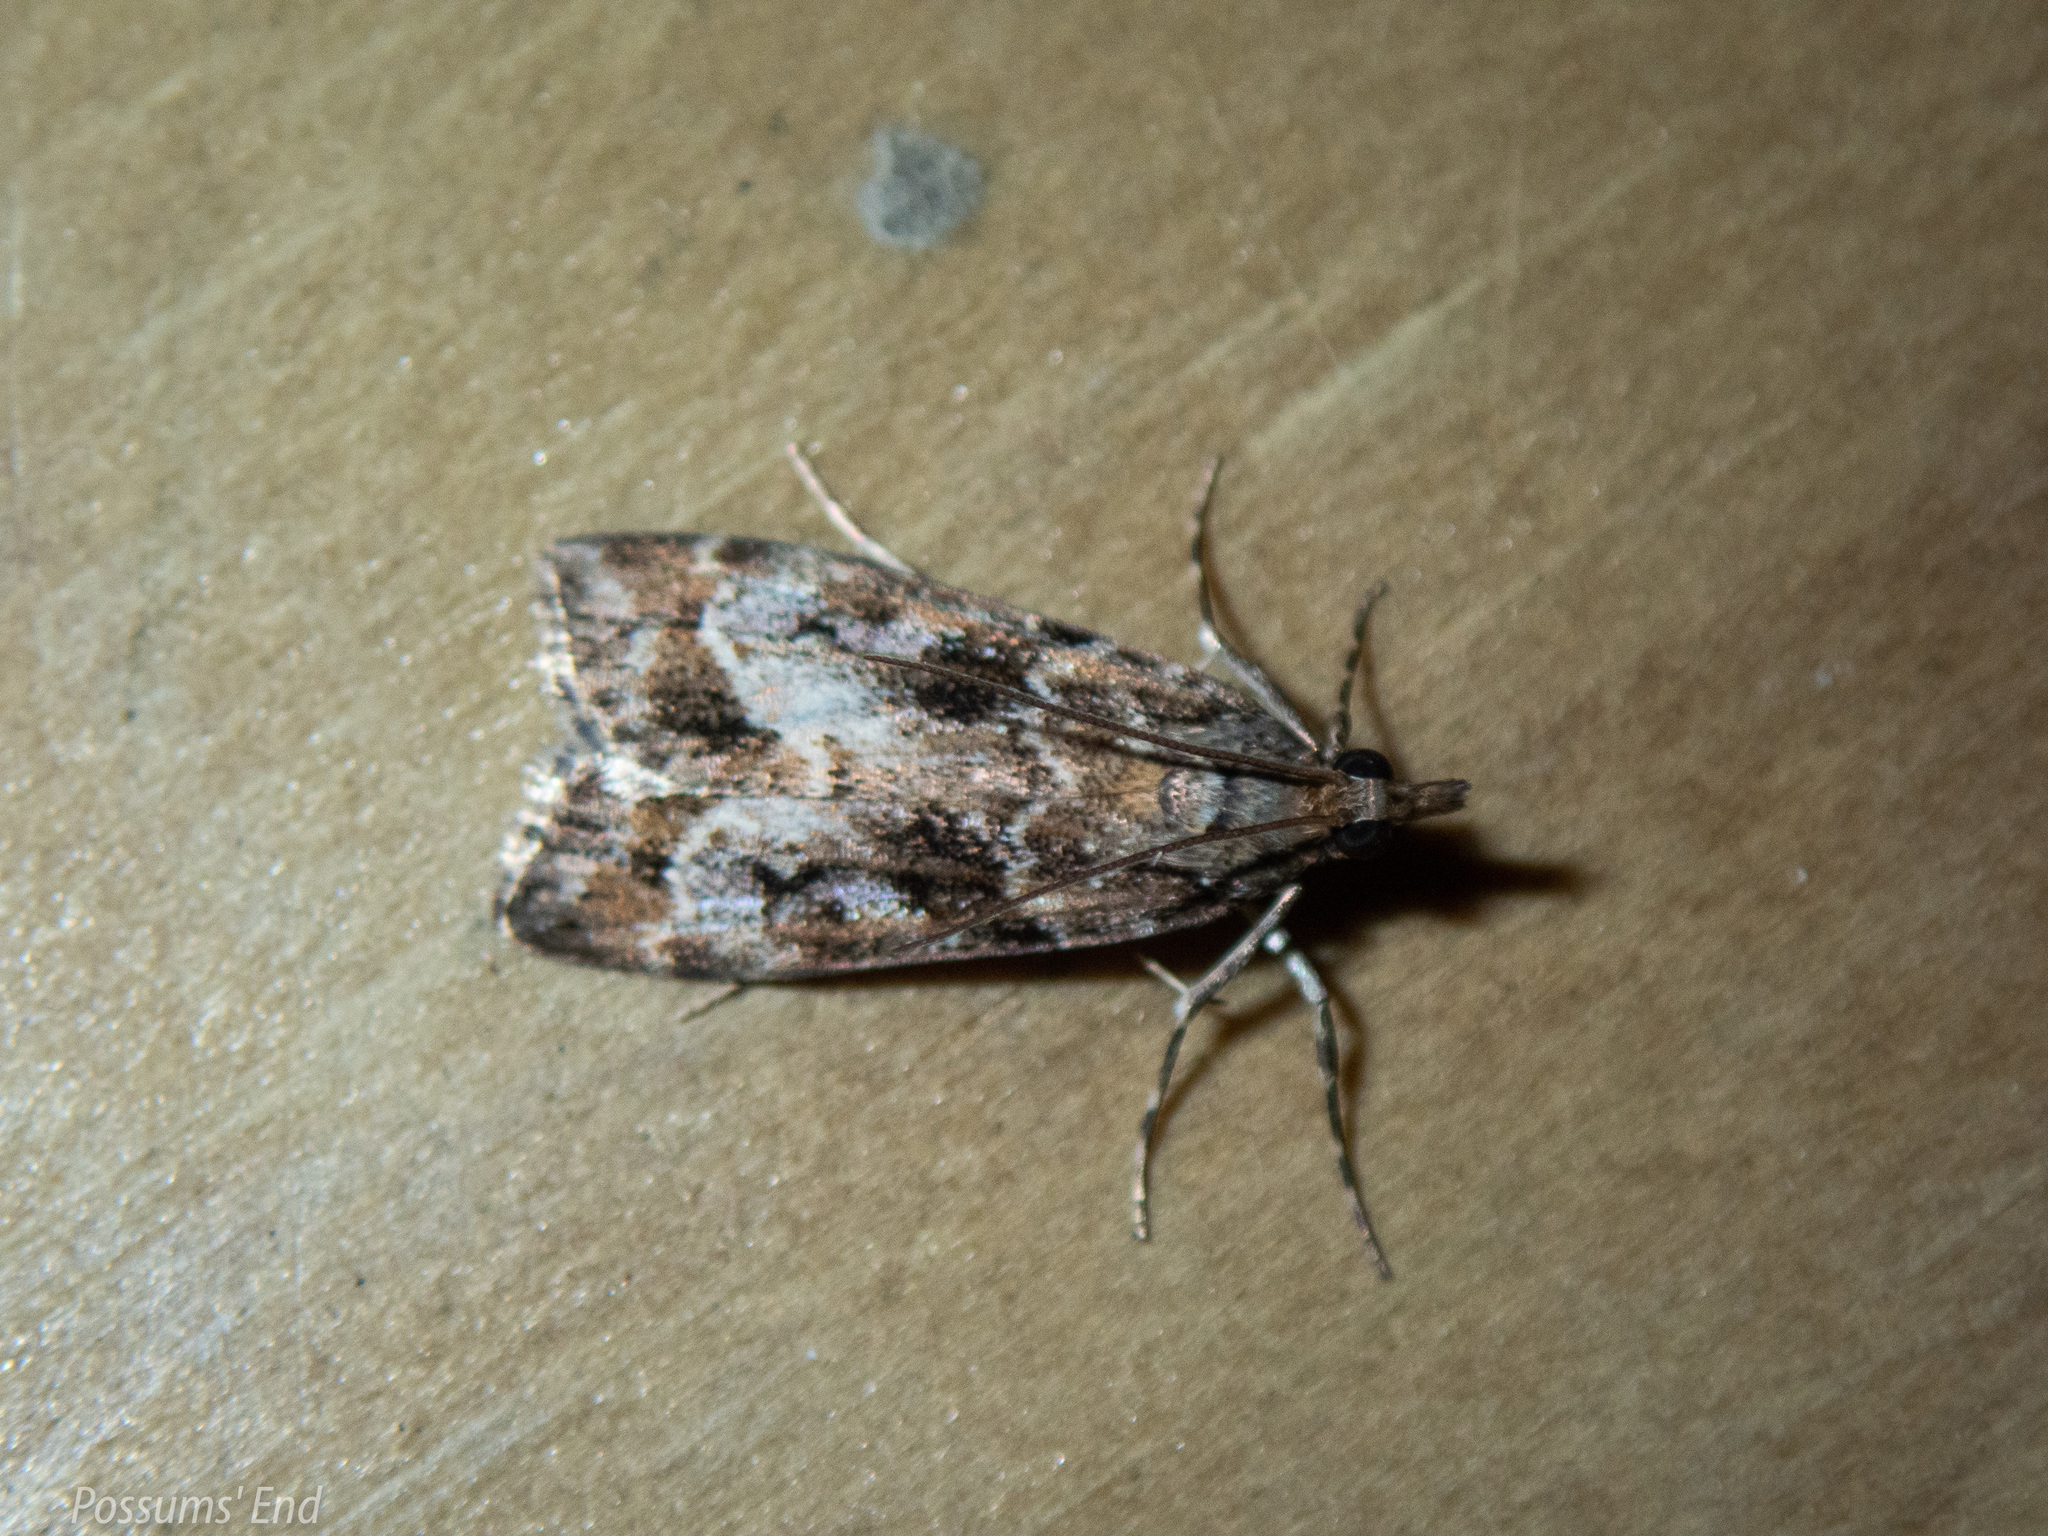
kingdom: Animalia
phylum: Arthropoda
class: Insecta
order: Lepidoptera
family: Crambidae
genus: Eudonia
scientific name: Eudonia luminatrix
